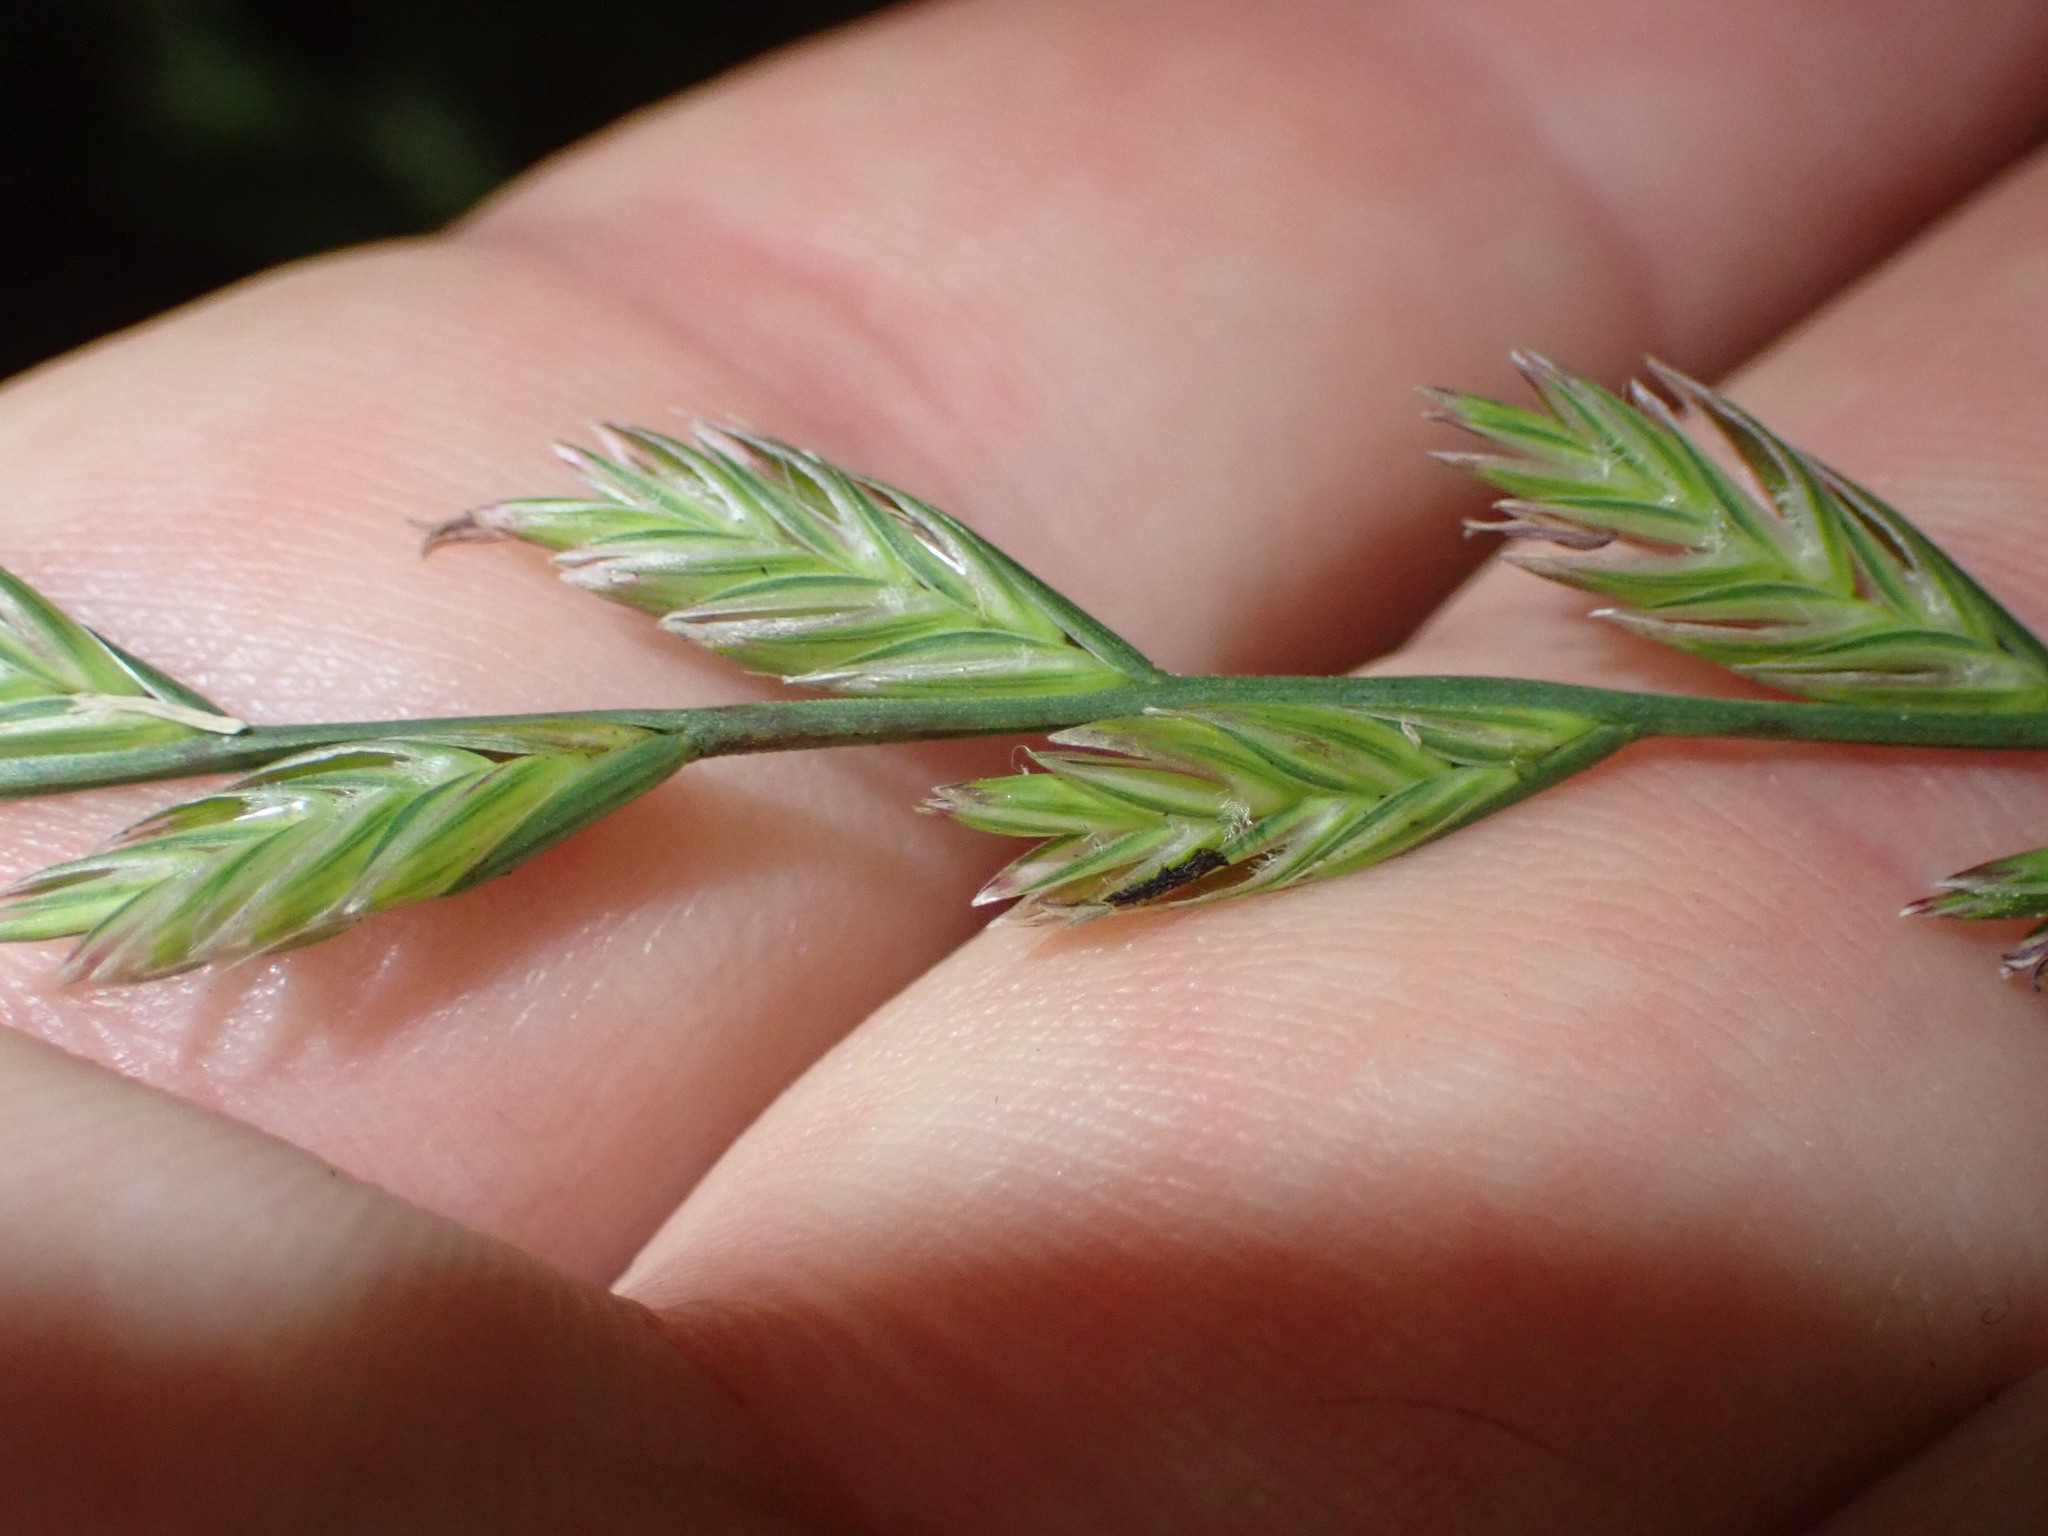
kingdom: Plantae
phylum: Tracheophyta
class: Liliopsida
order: Poales
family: Poaceae
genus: Lolium
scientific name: Lolium perenne
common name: Perennial ryegrass
